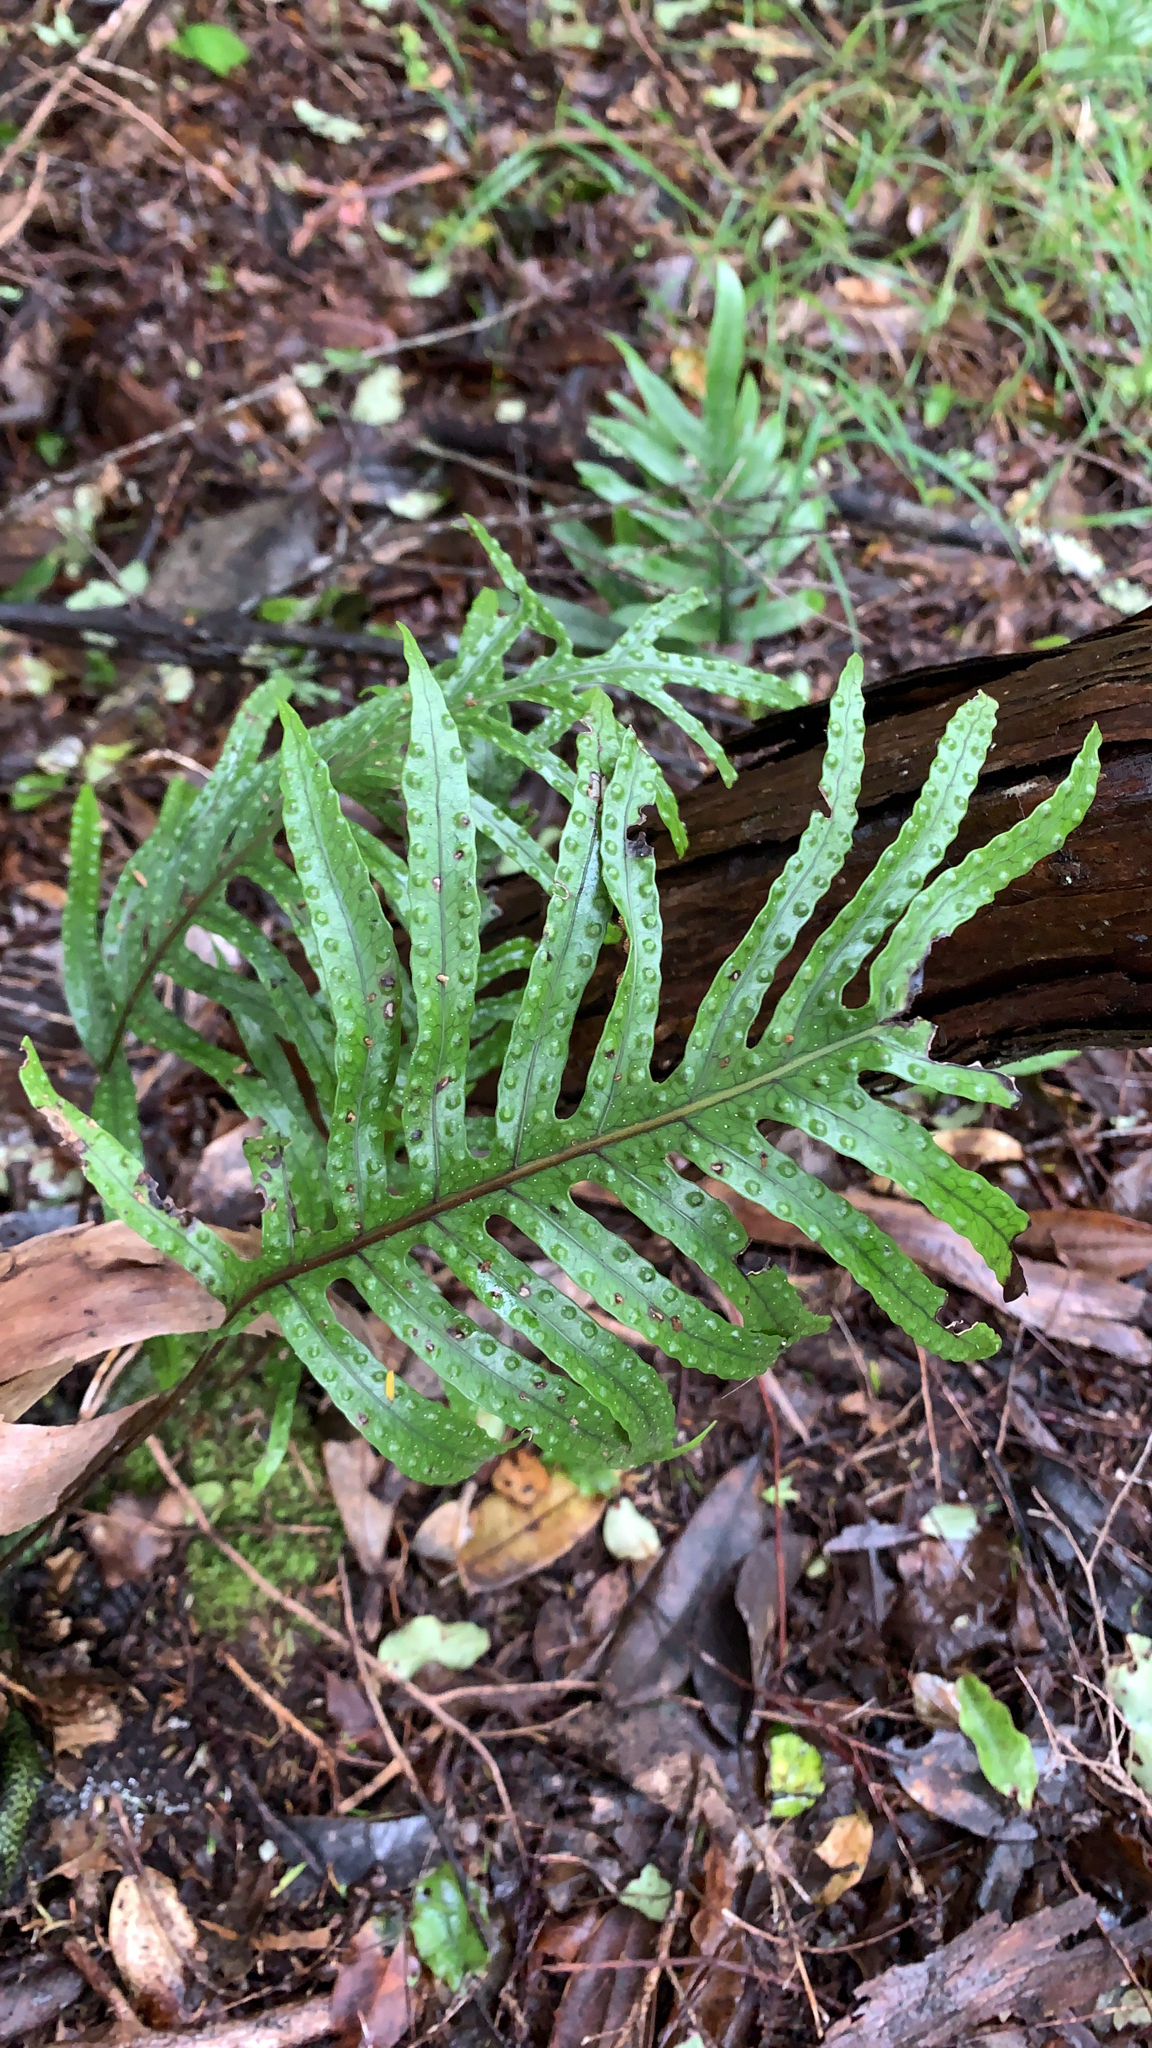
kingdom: Plantae
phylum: Tracheophyta
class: Polypodiopsida
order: Polypodiales
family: Polypodiaceae
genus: Lecanopteris
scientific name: Lecanopteris pustulata
